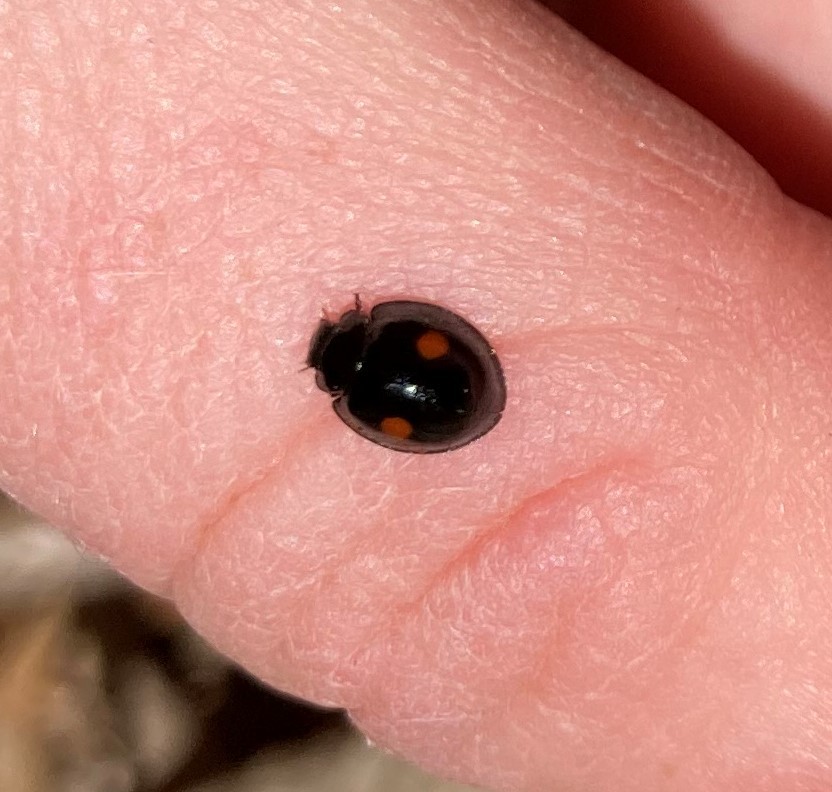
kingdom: Animalia
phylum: Arthropoda
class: Insecta
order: Coleoptera
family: Coccinellidae
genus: Chilocorus
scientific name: Chilocorus stigma
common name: Twicestabbed lady beetle
